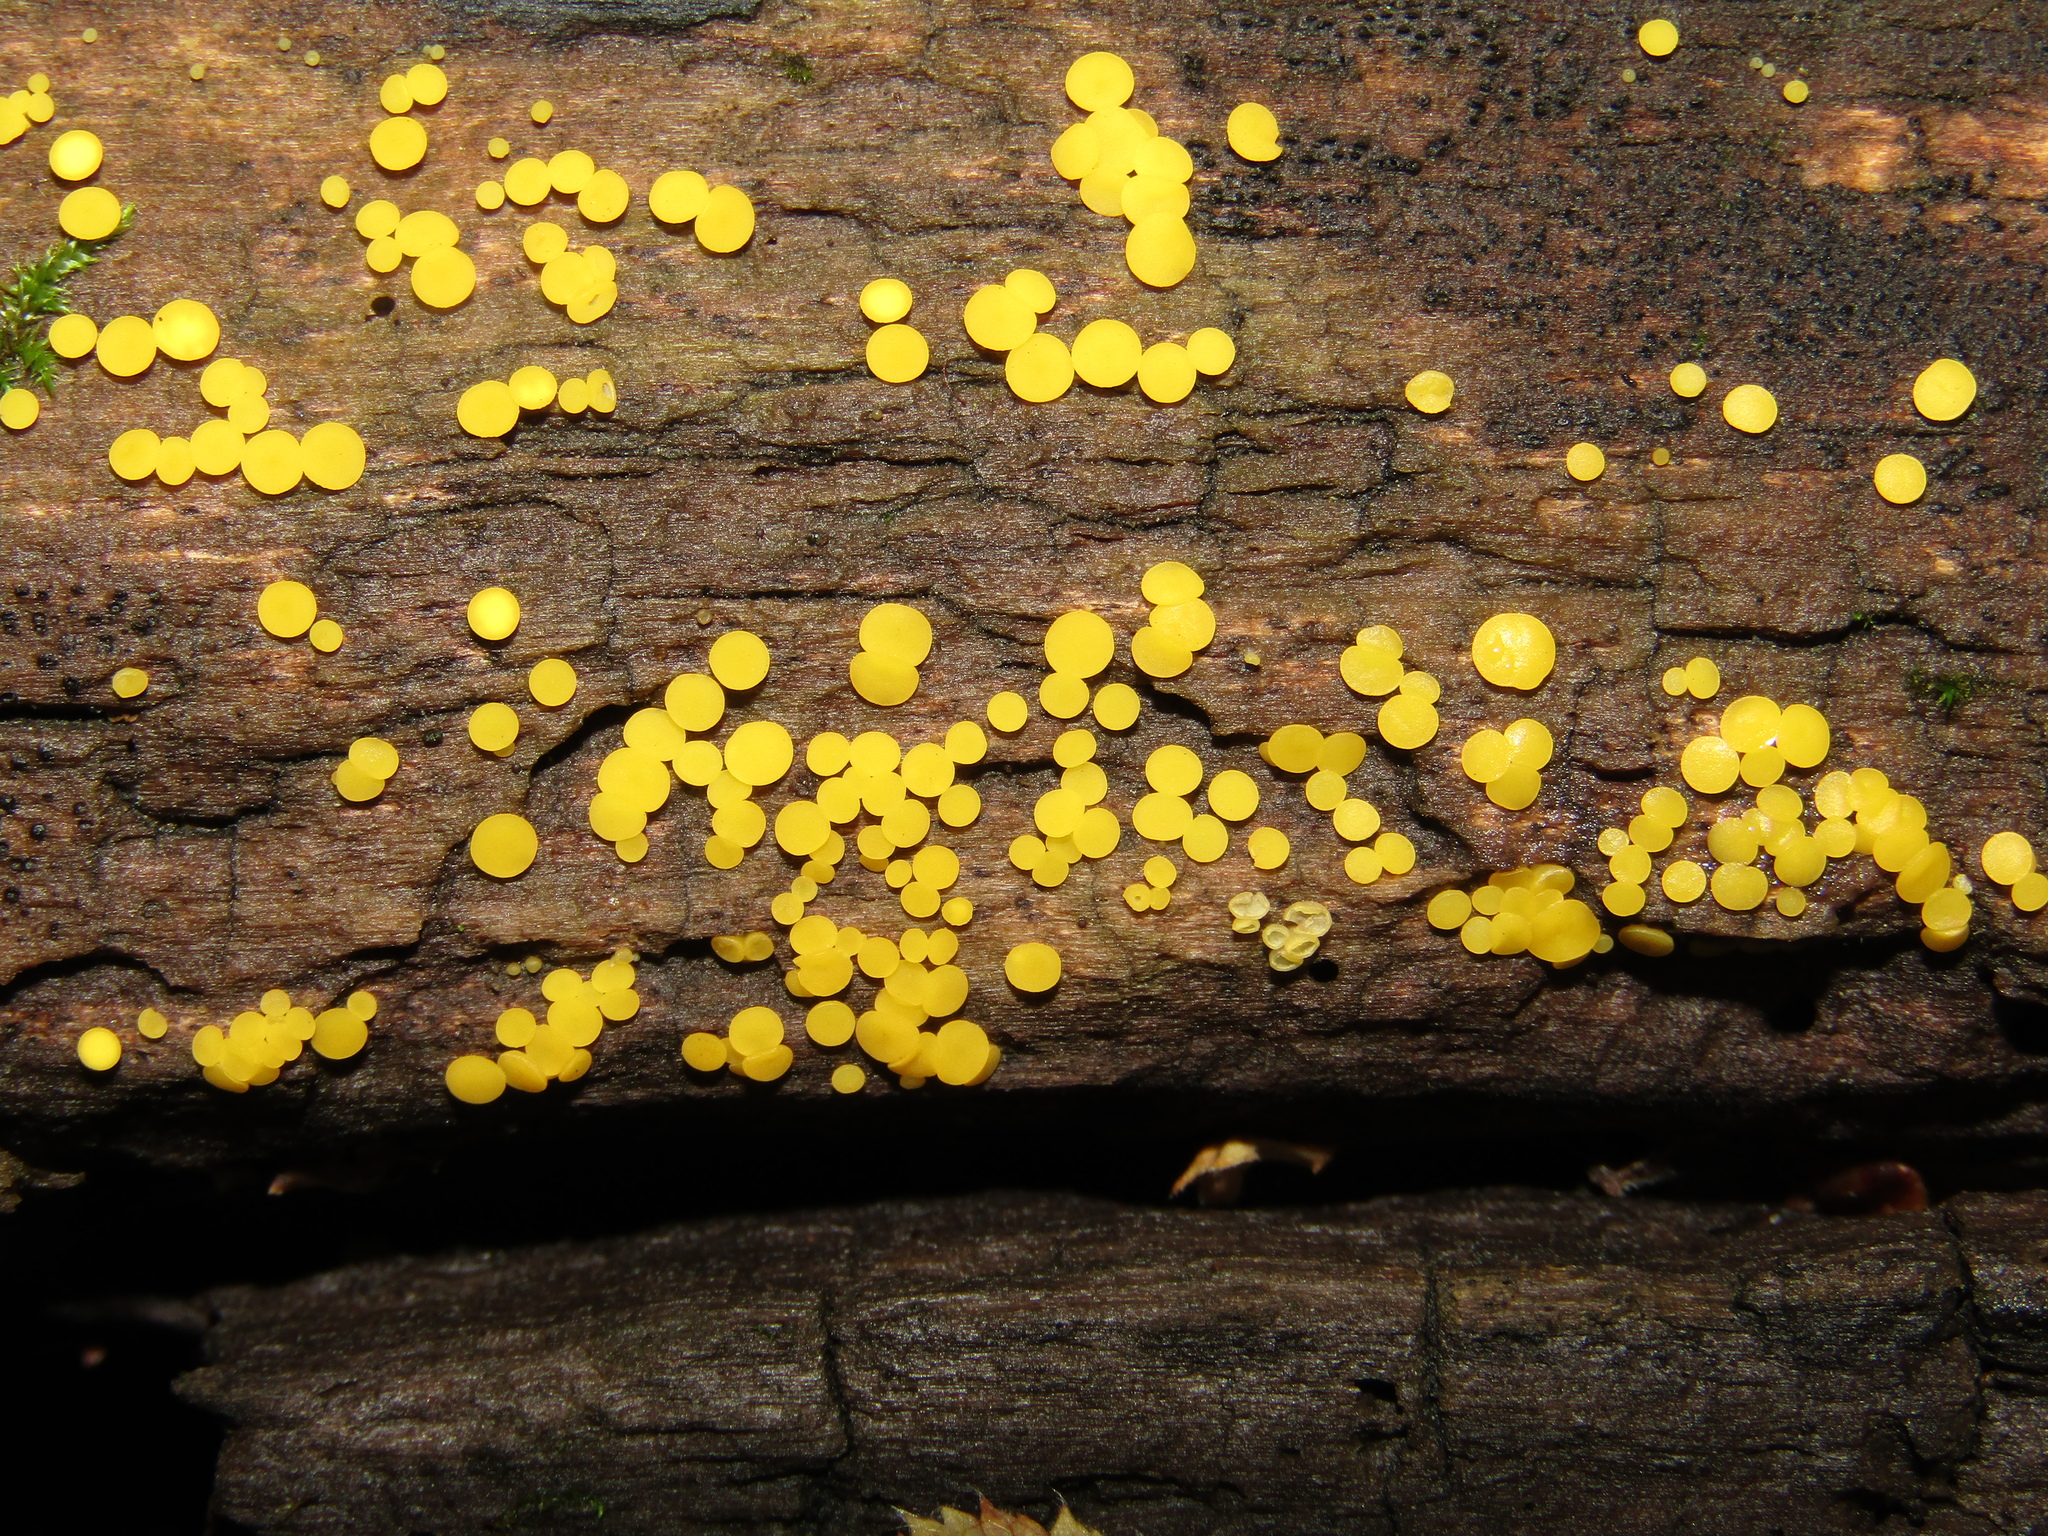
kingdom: Fungi
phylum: Ascomycota
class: Leotiomycetes
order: Helotiales
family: Pezizellaceae
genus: Calycina
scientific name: Calycina citrina
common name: Yellow fairy cups
